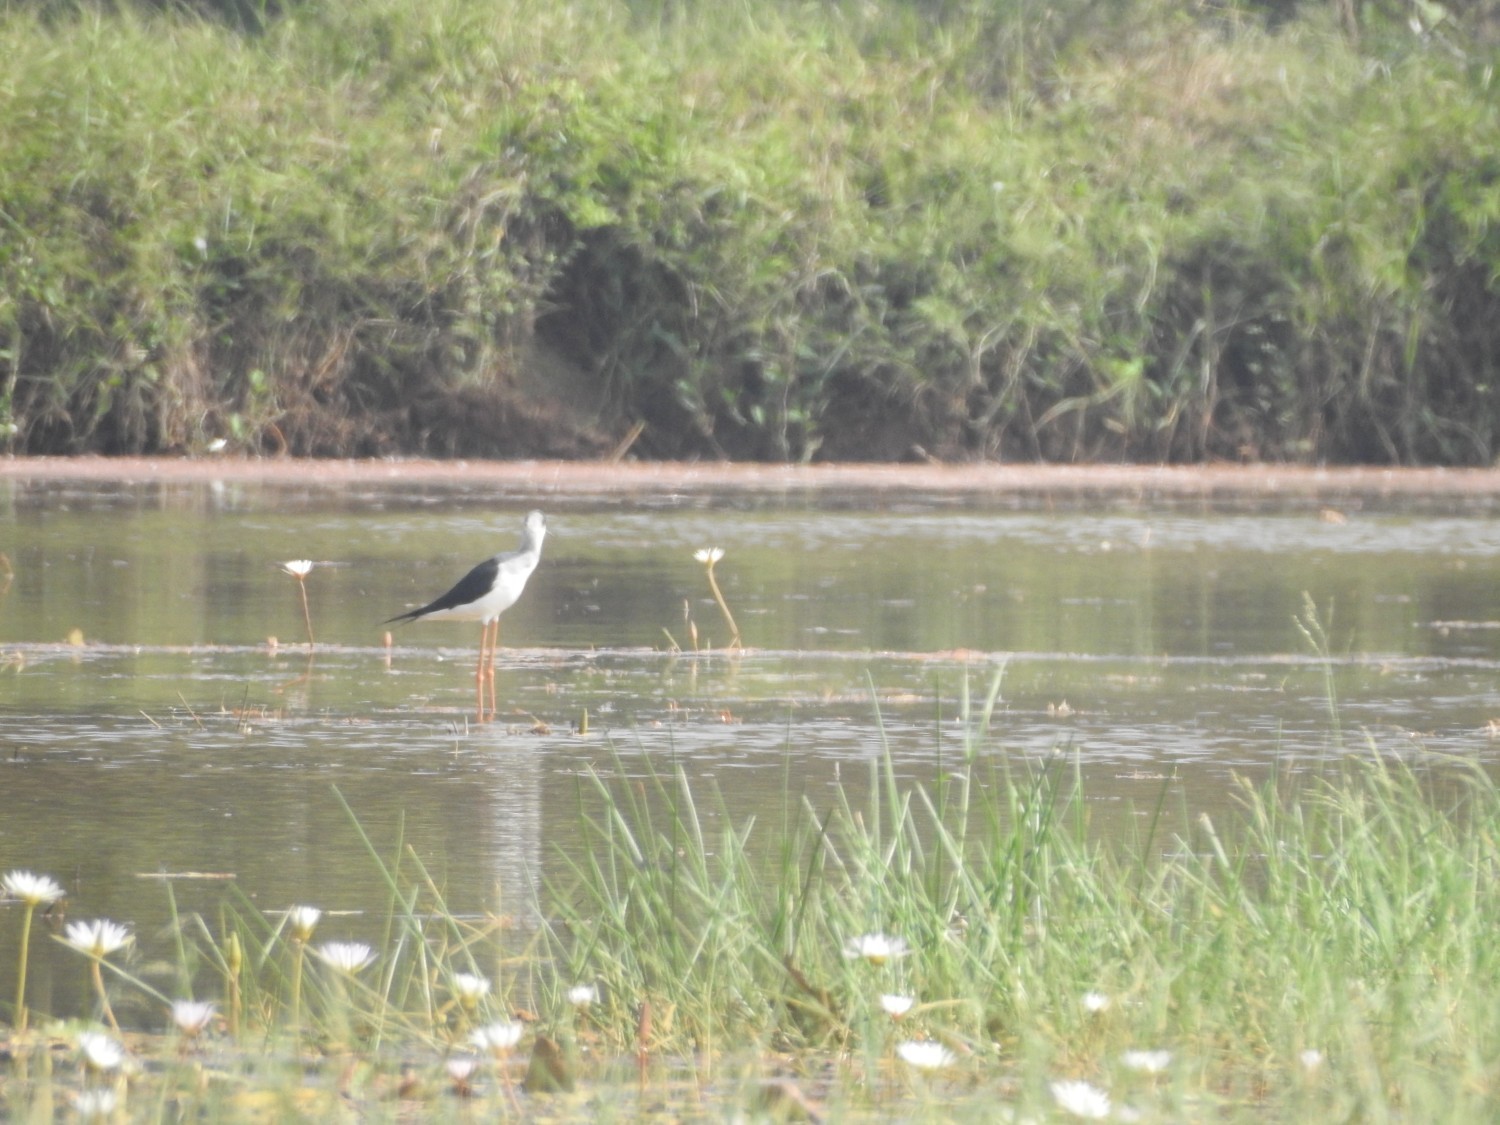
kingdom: Animalia
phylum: Chordata
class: Aves
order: Charadriiformes
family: Recurvirostridae
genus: Himantopus
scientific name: Himantopus himantopus
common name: Black-winged stilt
